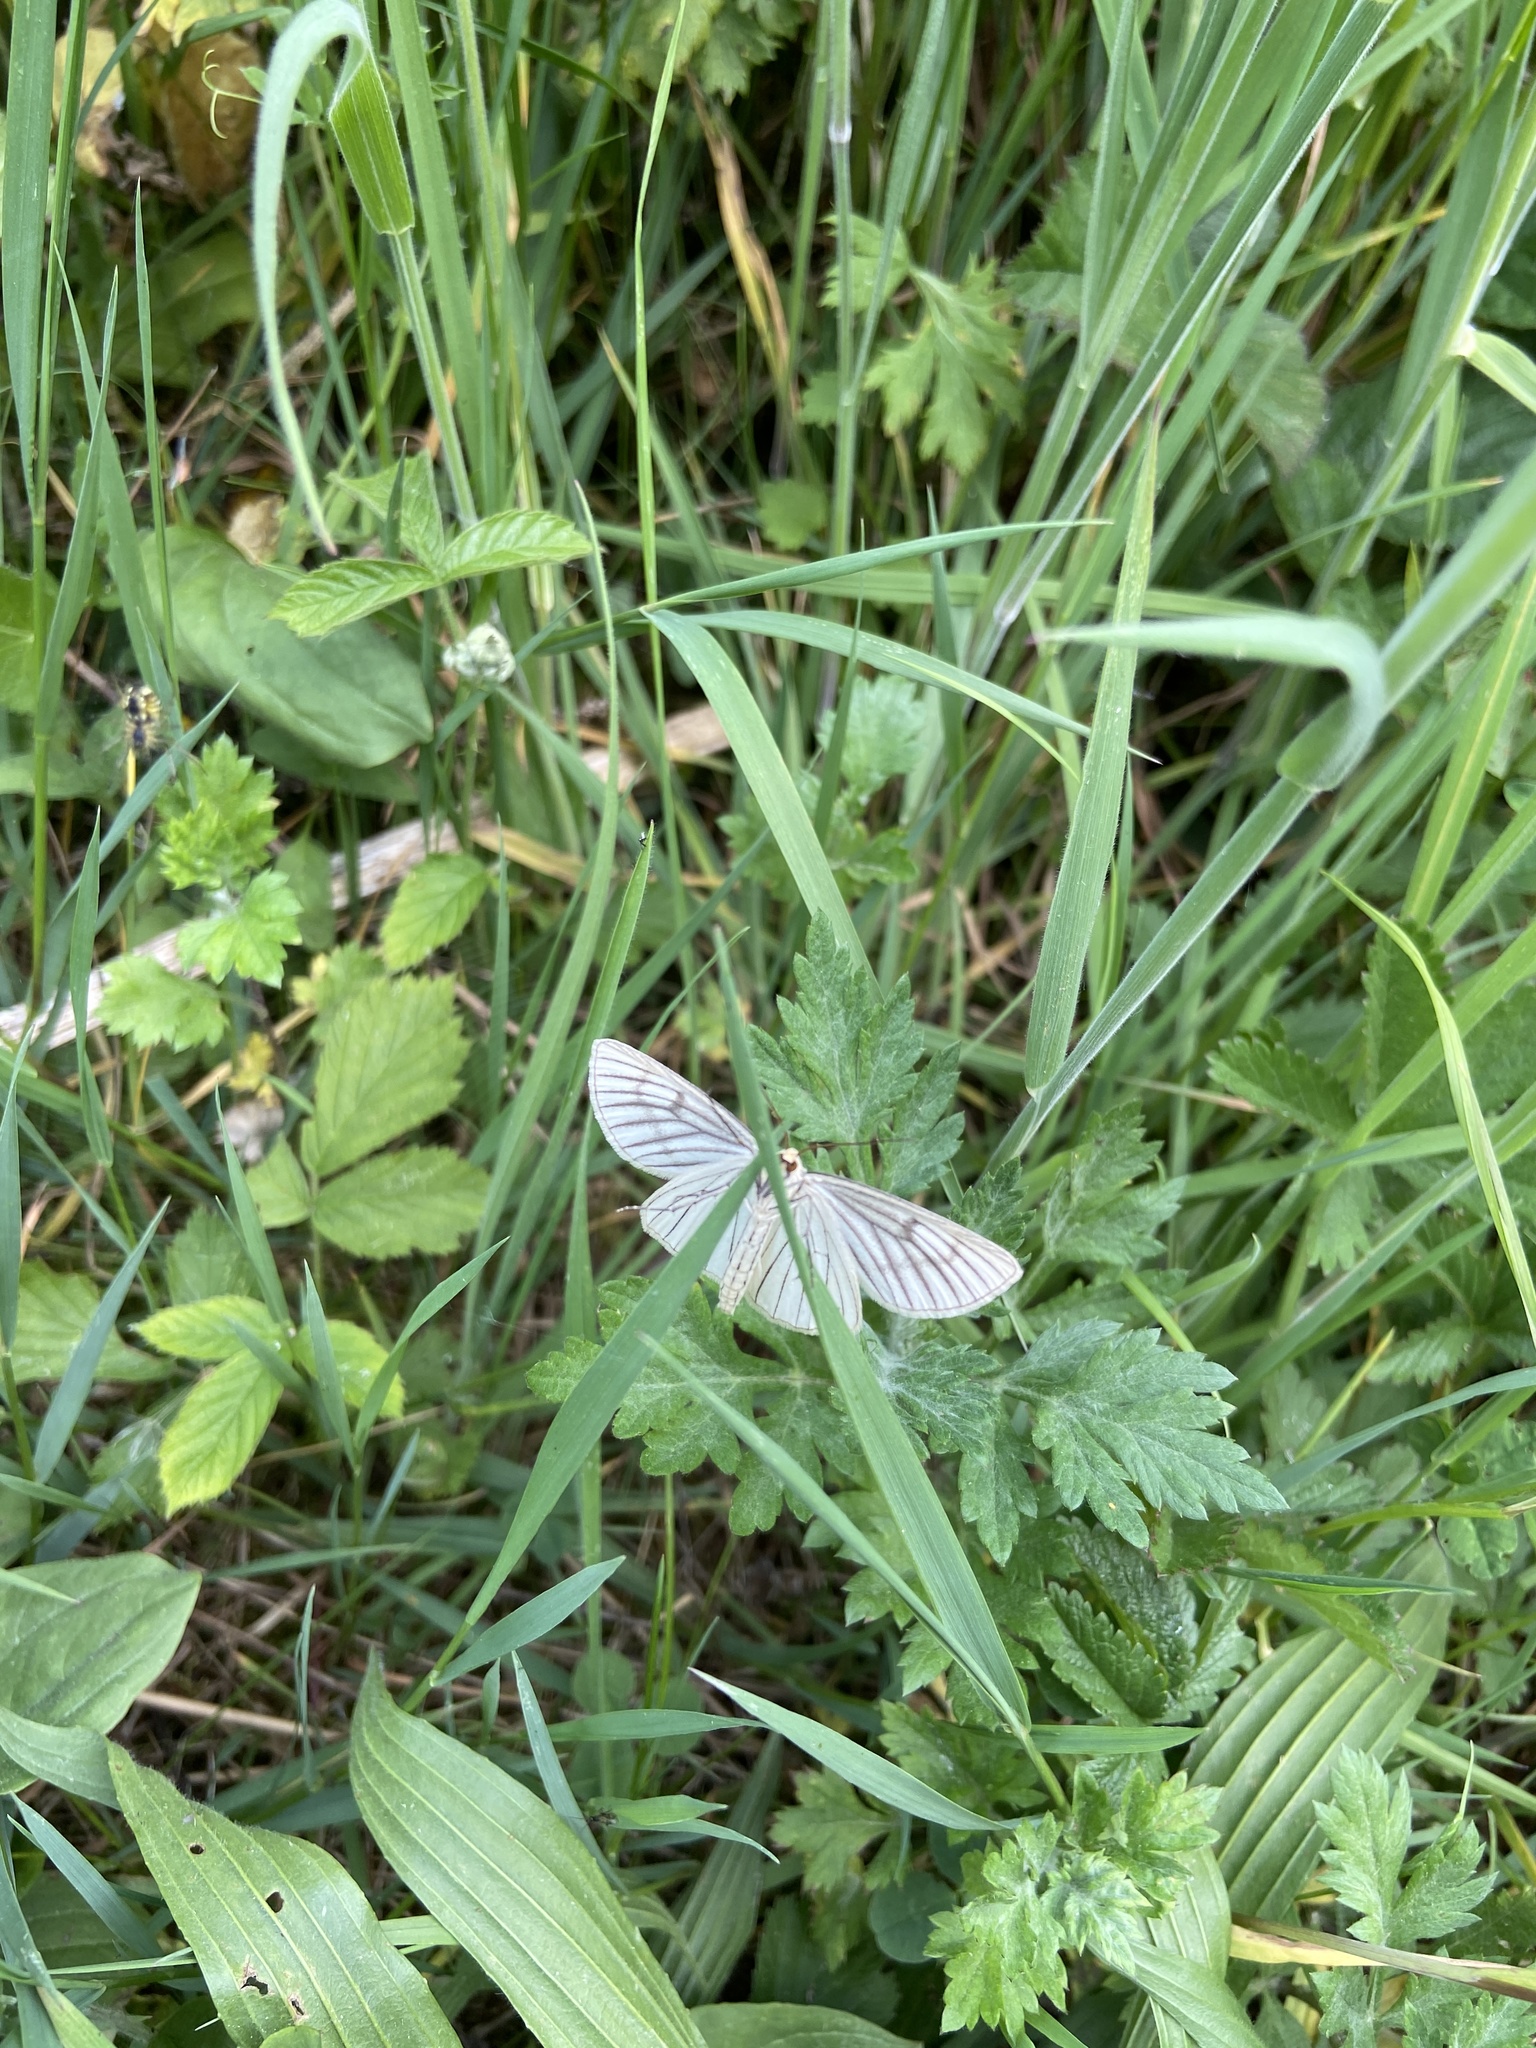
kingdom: Animalia
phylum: Arthropoda
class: Insecta
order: Lepidoptera
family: Geometridae
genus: Siona
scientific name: Siona lineata
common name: Black-veined moth
